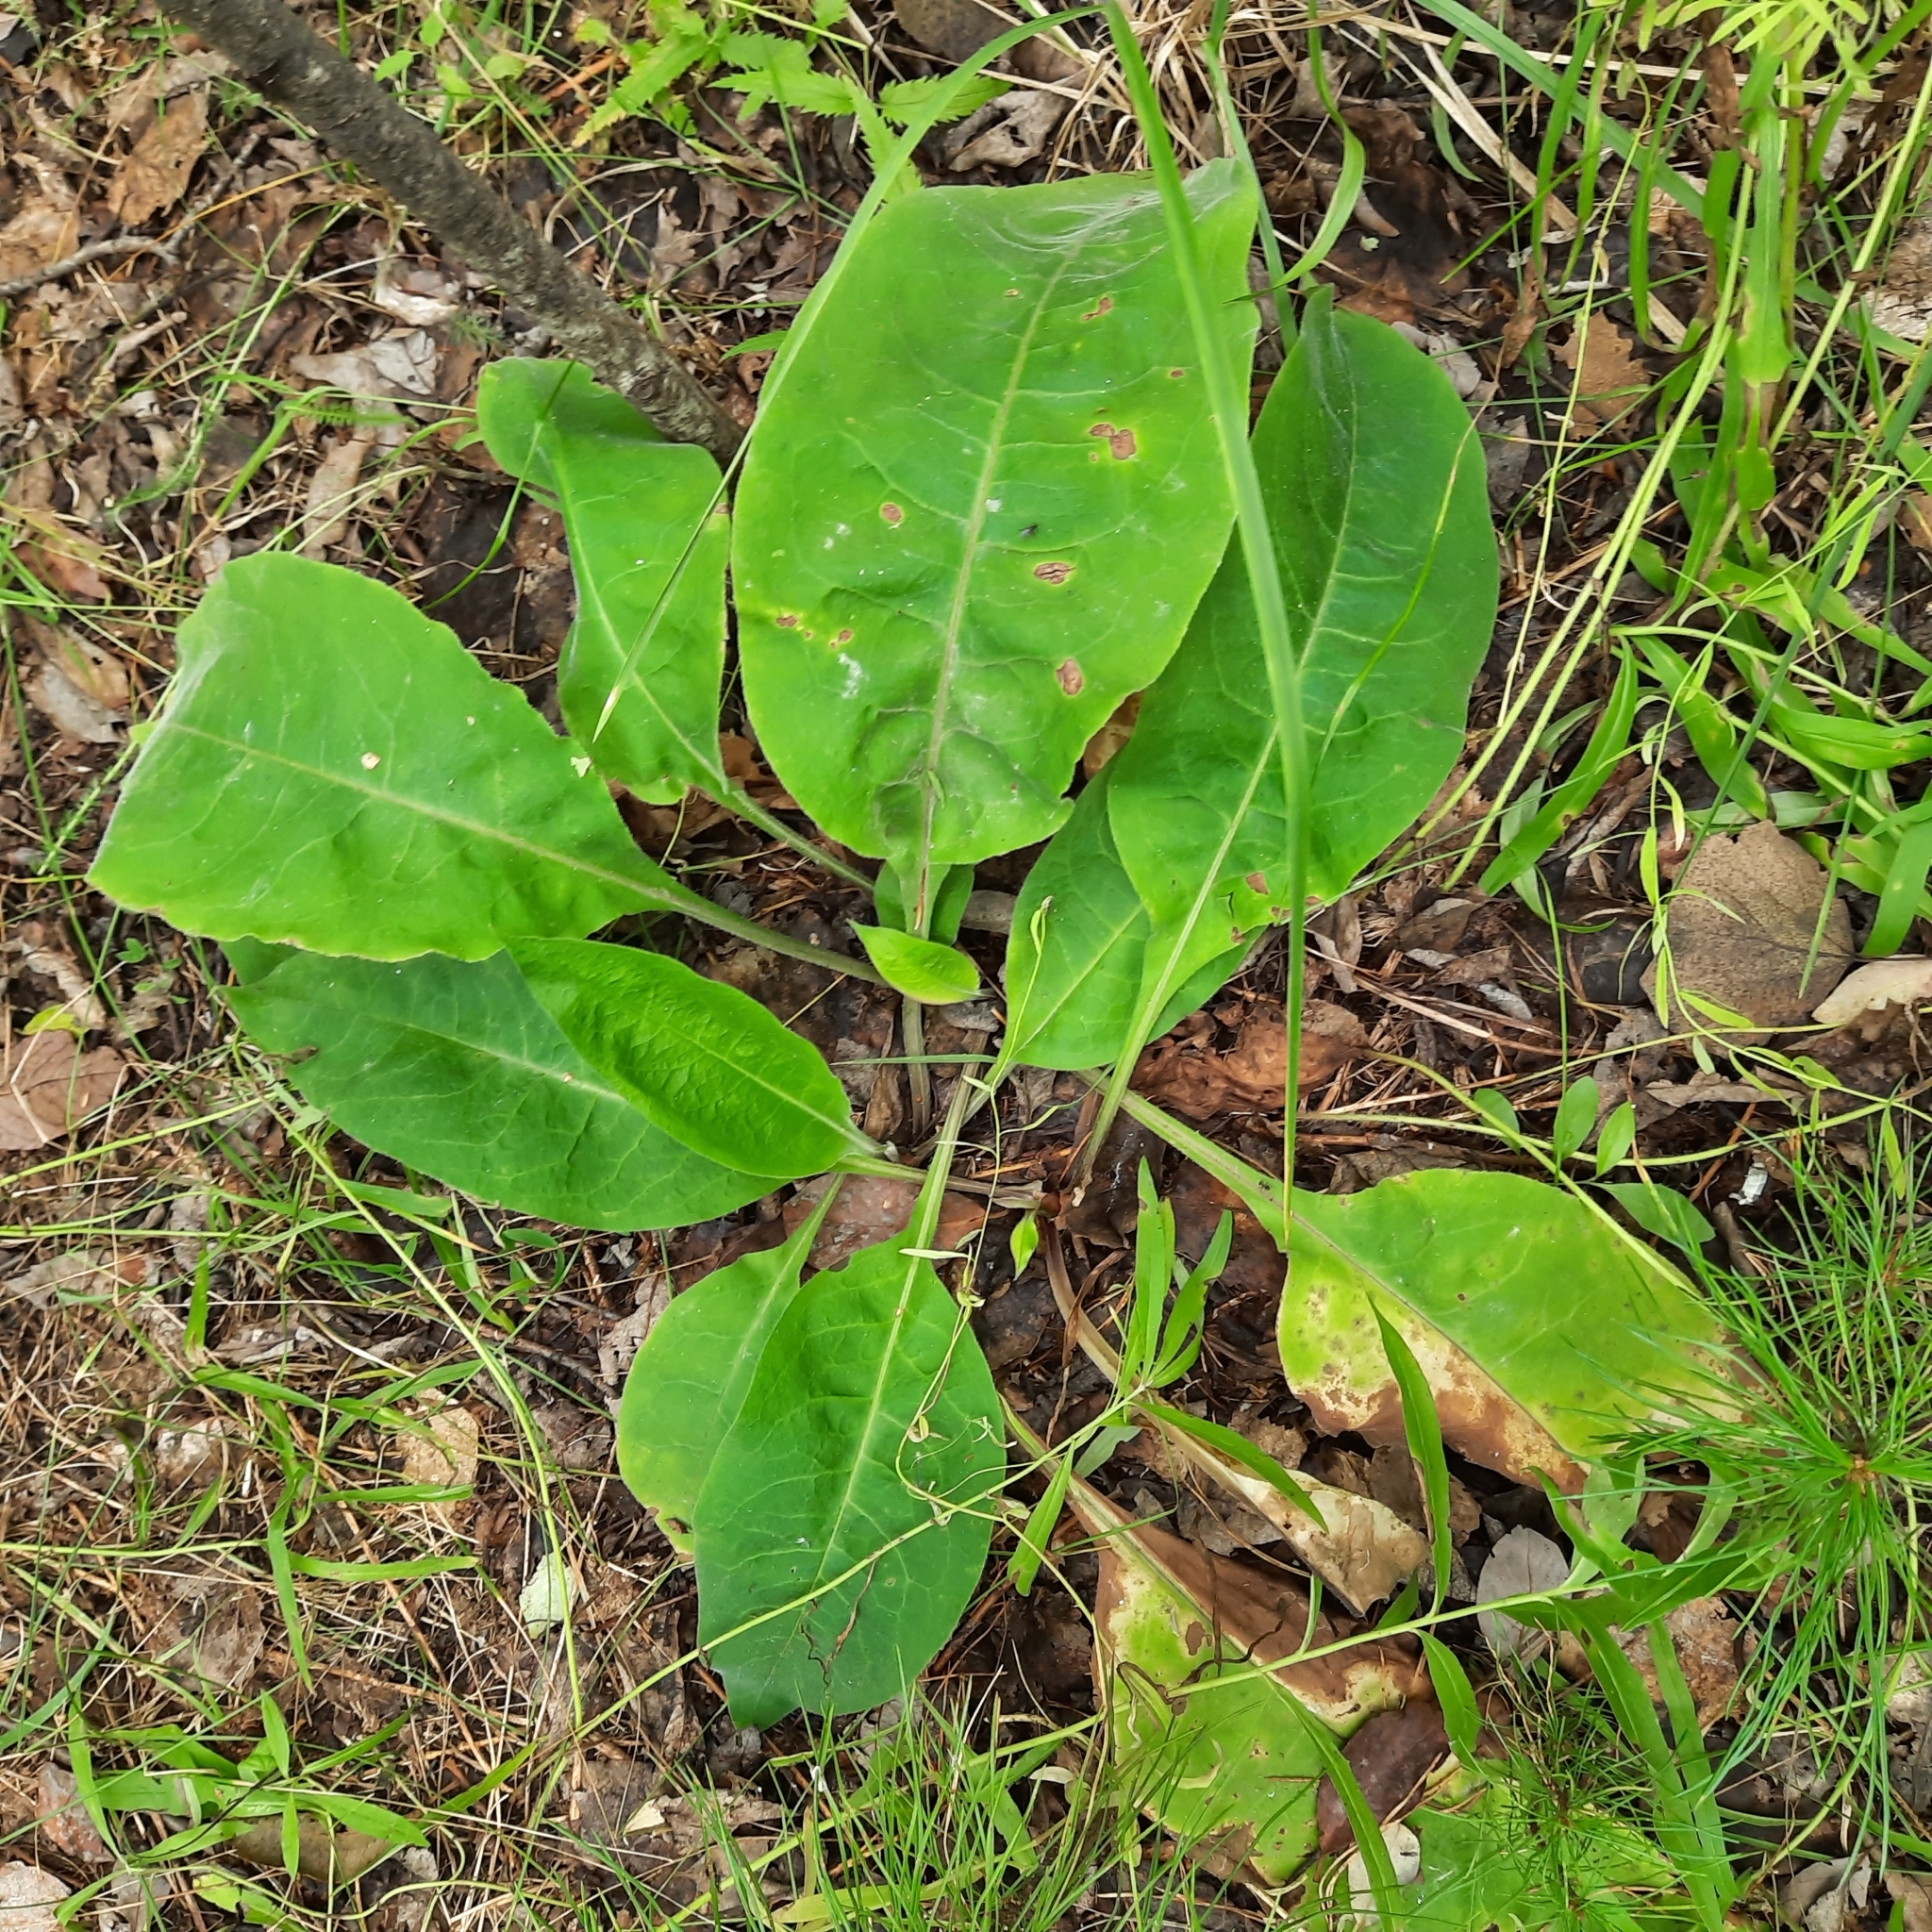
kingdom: Plantae
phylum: Tracheophyta
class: Magnoliopsida
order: Boraginales
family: Boraginaceae
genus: Pulmonaria
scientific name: Pulmonaria mollis
